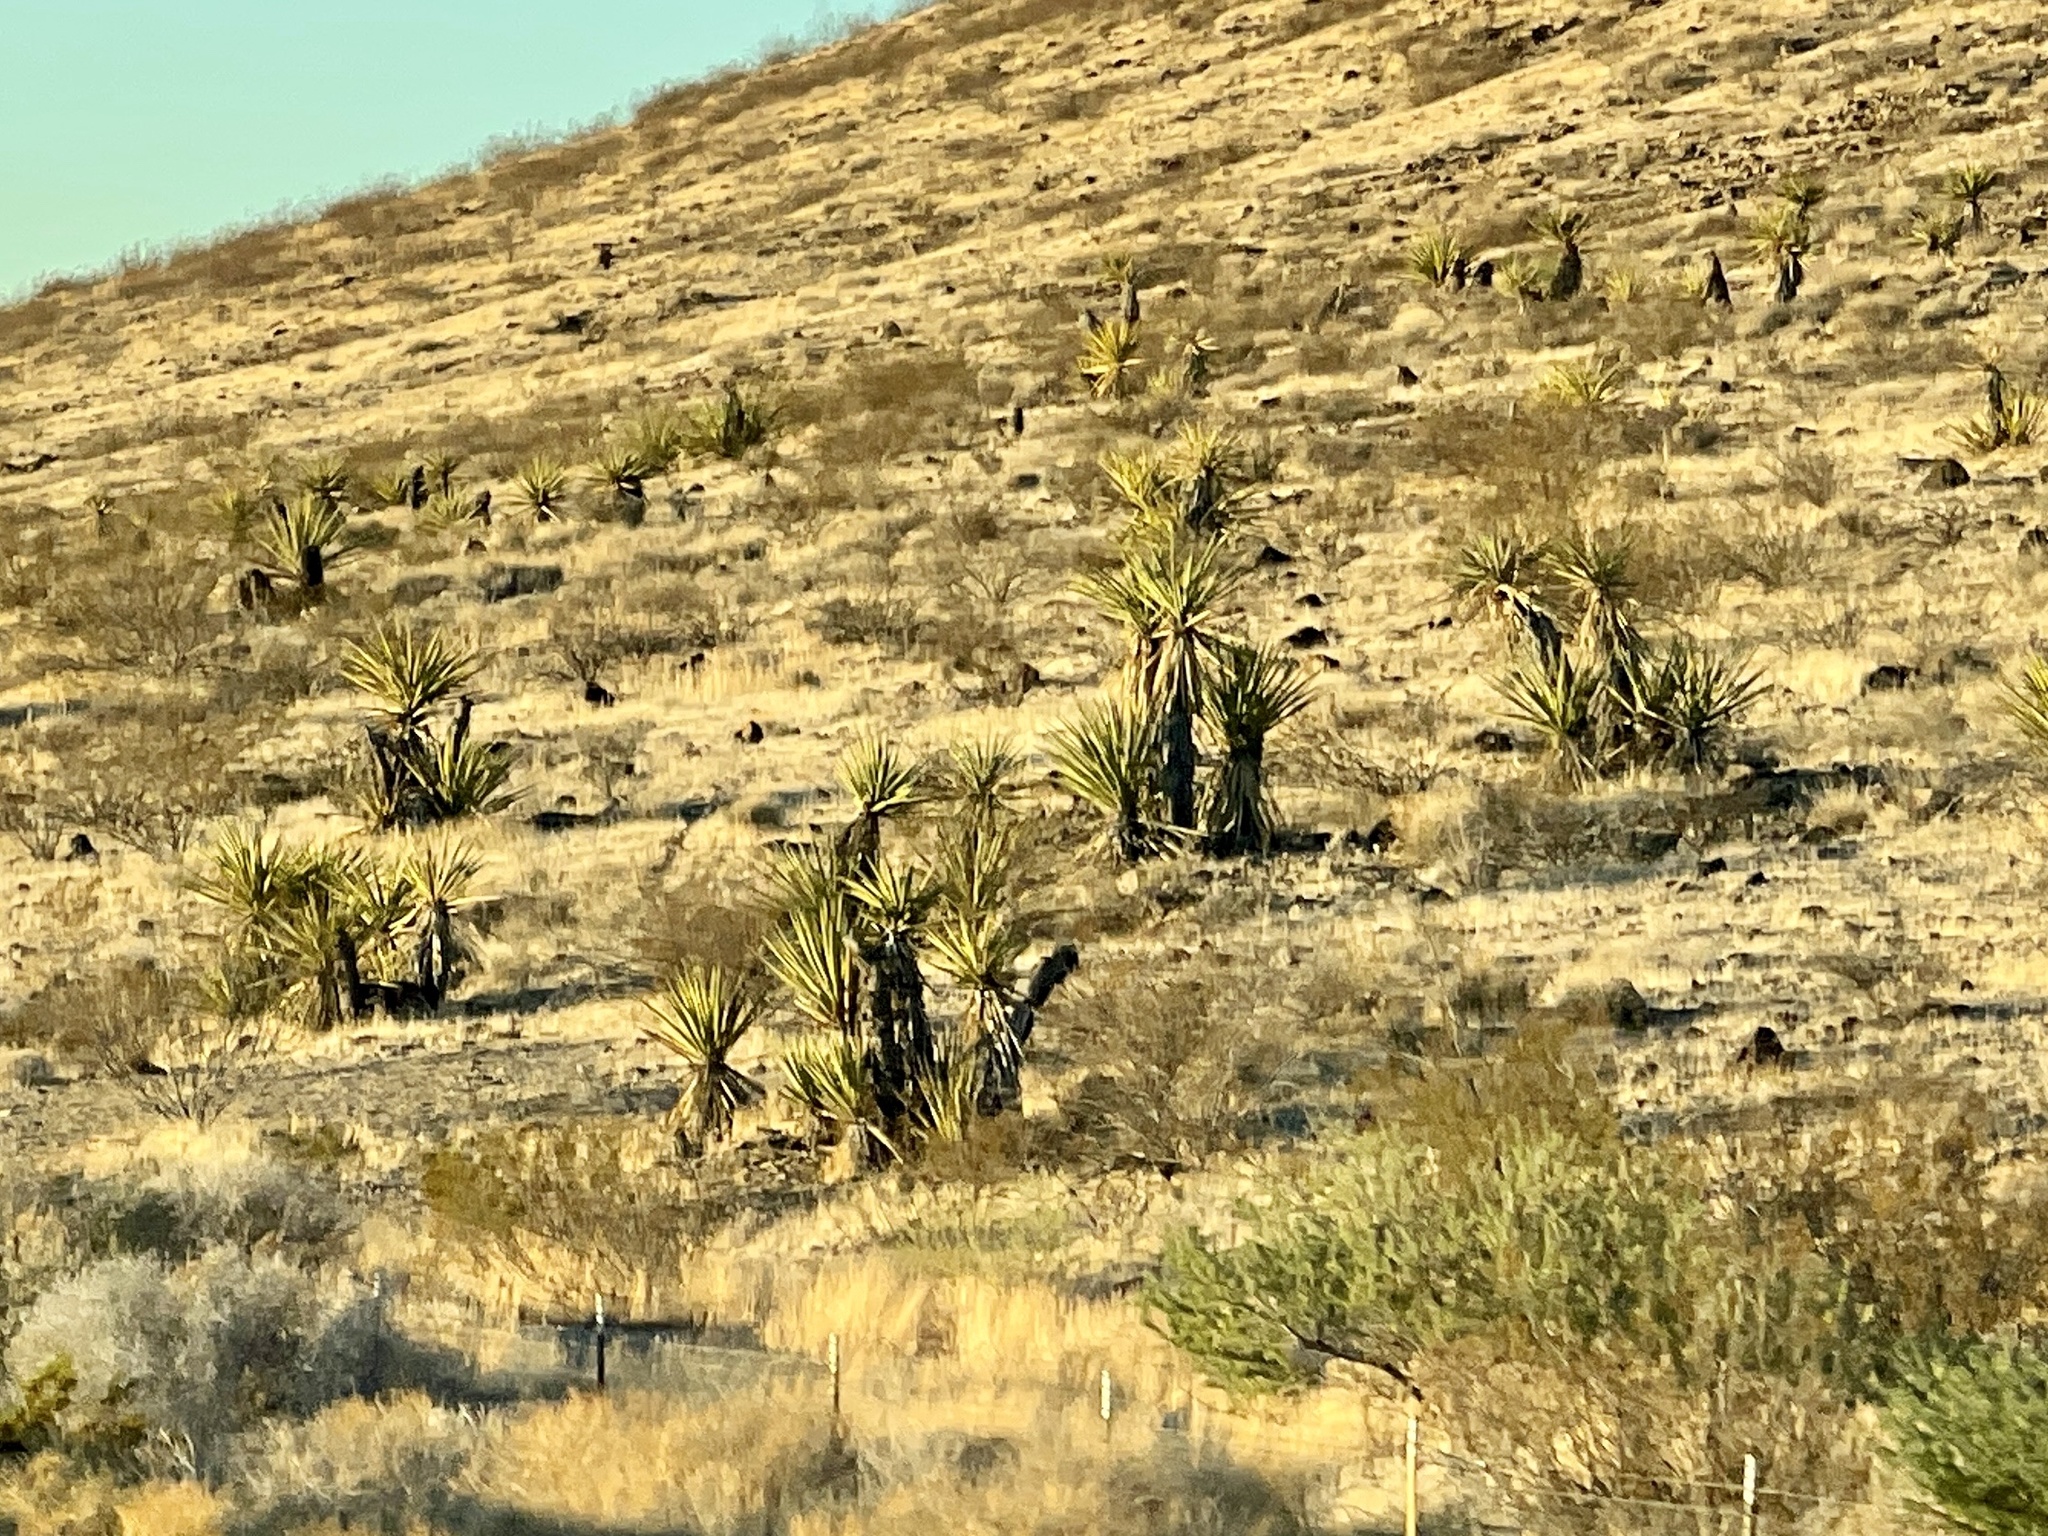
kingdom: Plantae
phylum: Tracheophyta
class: Liliopsida
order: Asparagales
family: Asparagaceae
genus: Yucca
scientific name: Yucca schidigera
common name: Mojave yucca
